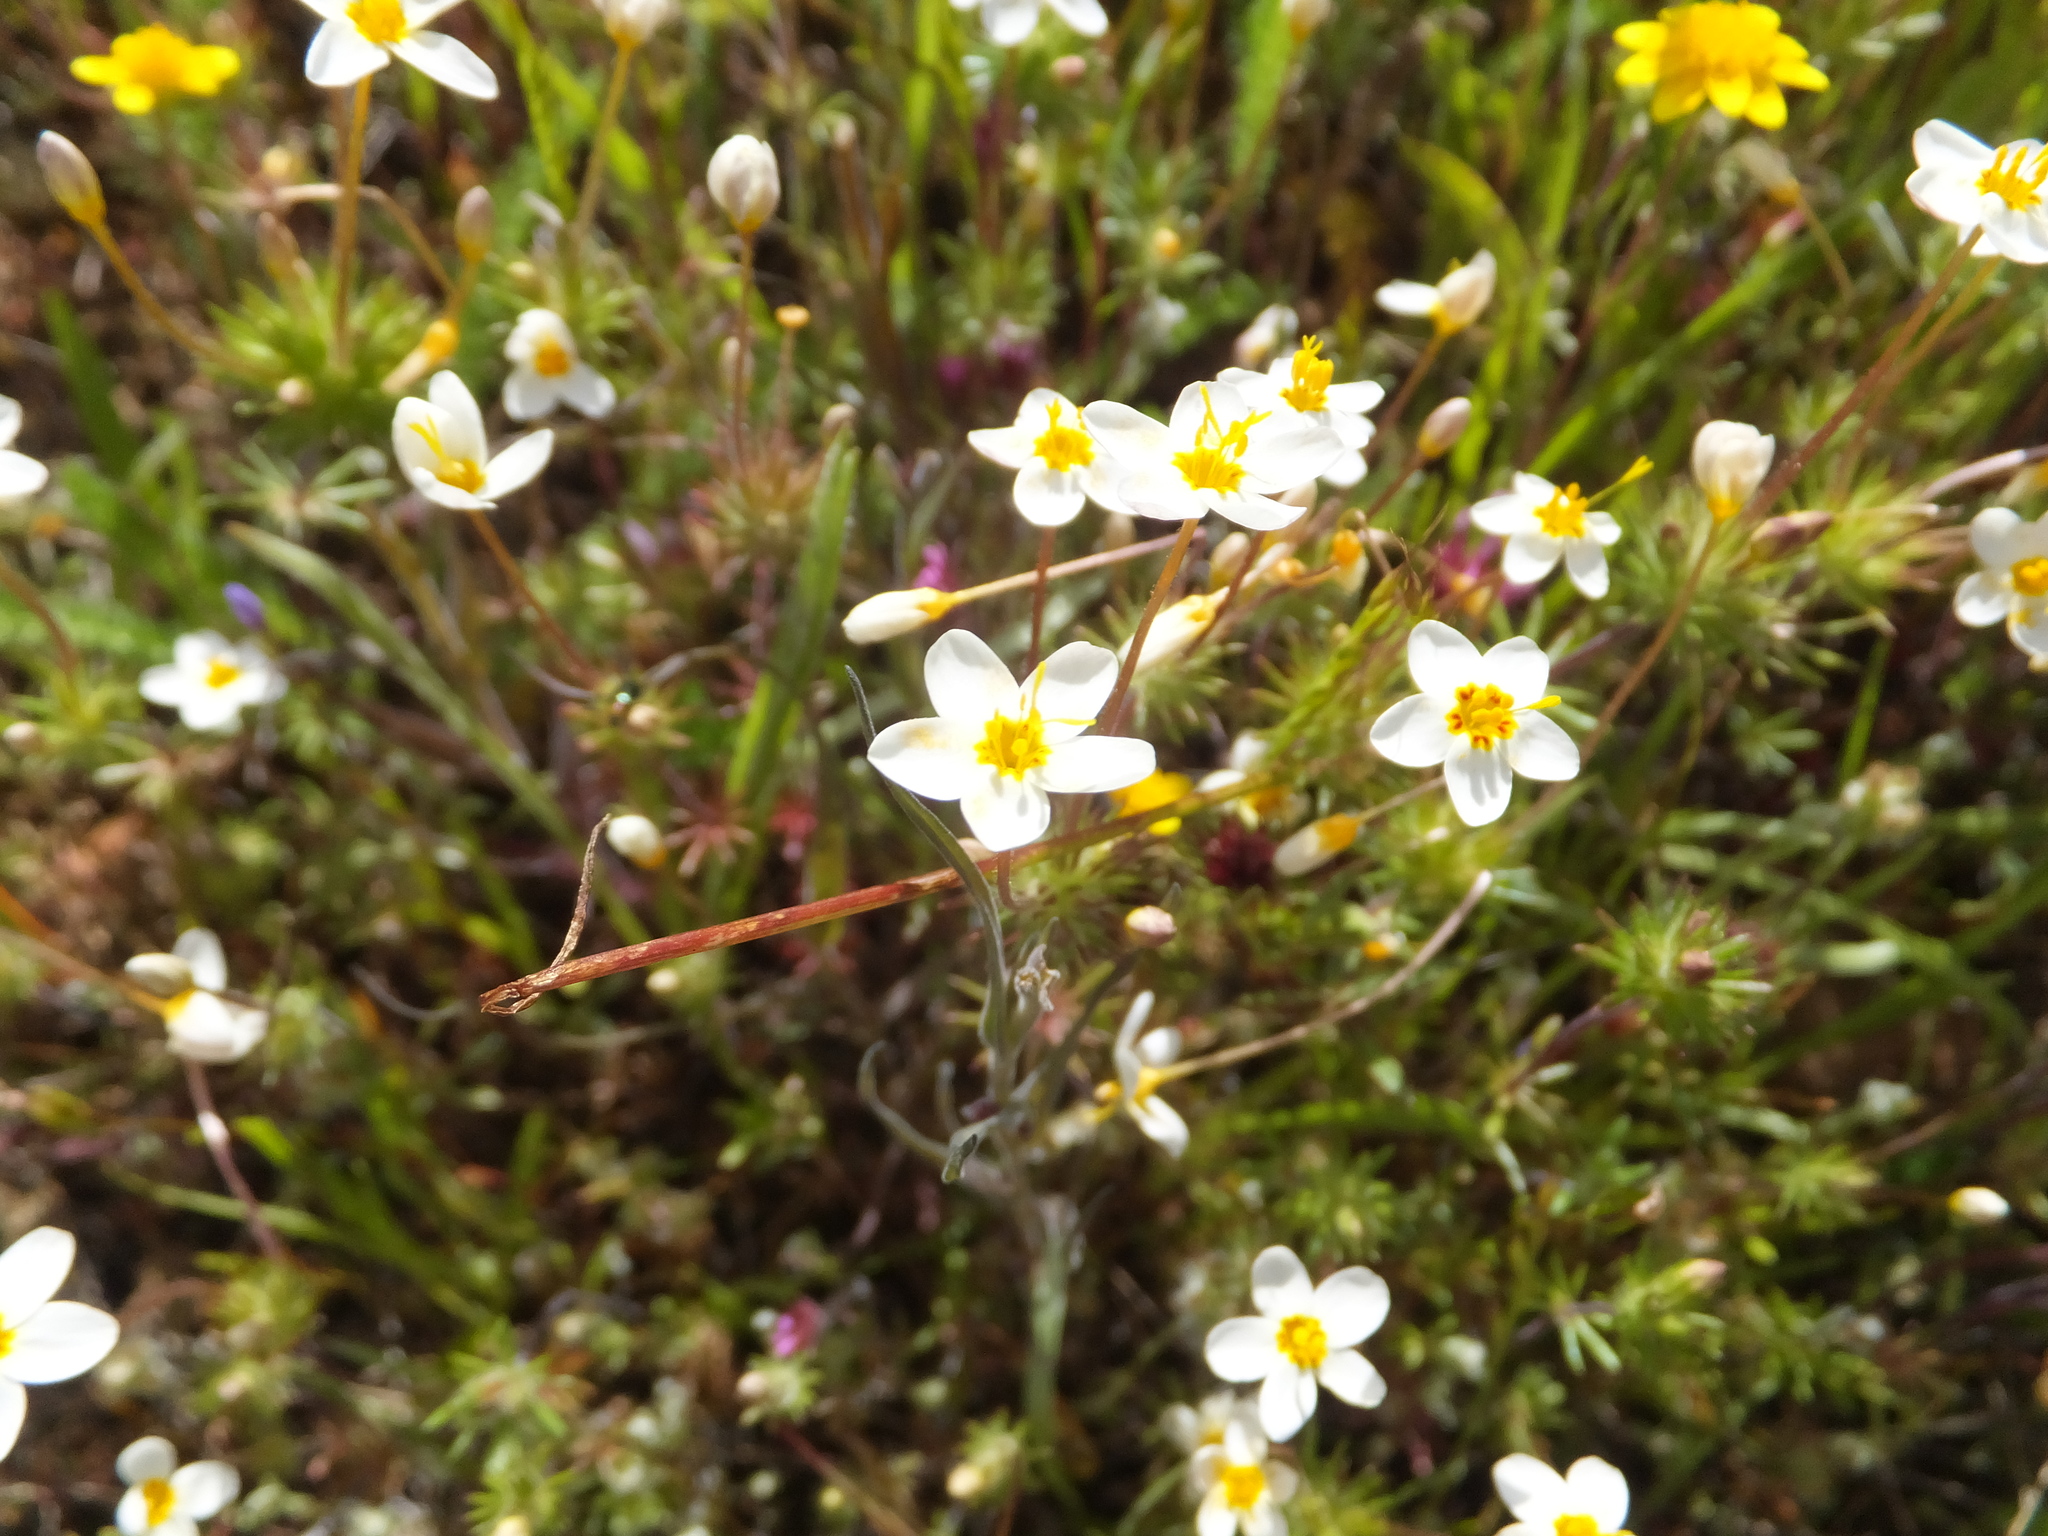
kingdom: Plantae
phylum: Tracheophyta
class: Magnoliopsida
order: Ericales
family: Polemoniaceae
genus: Leptosiphon
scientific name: Leptosiphon parviflorus
